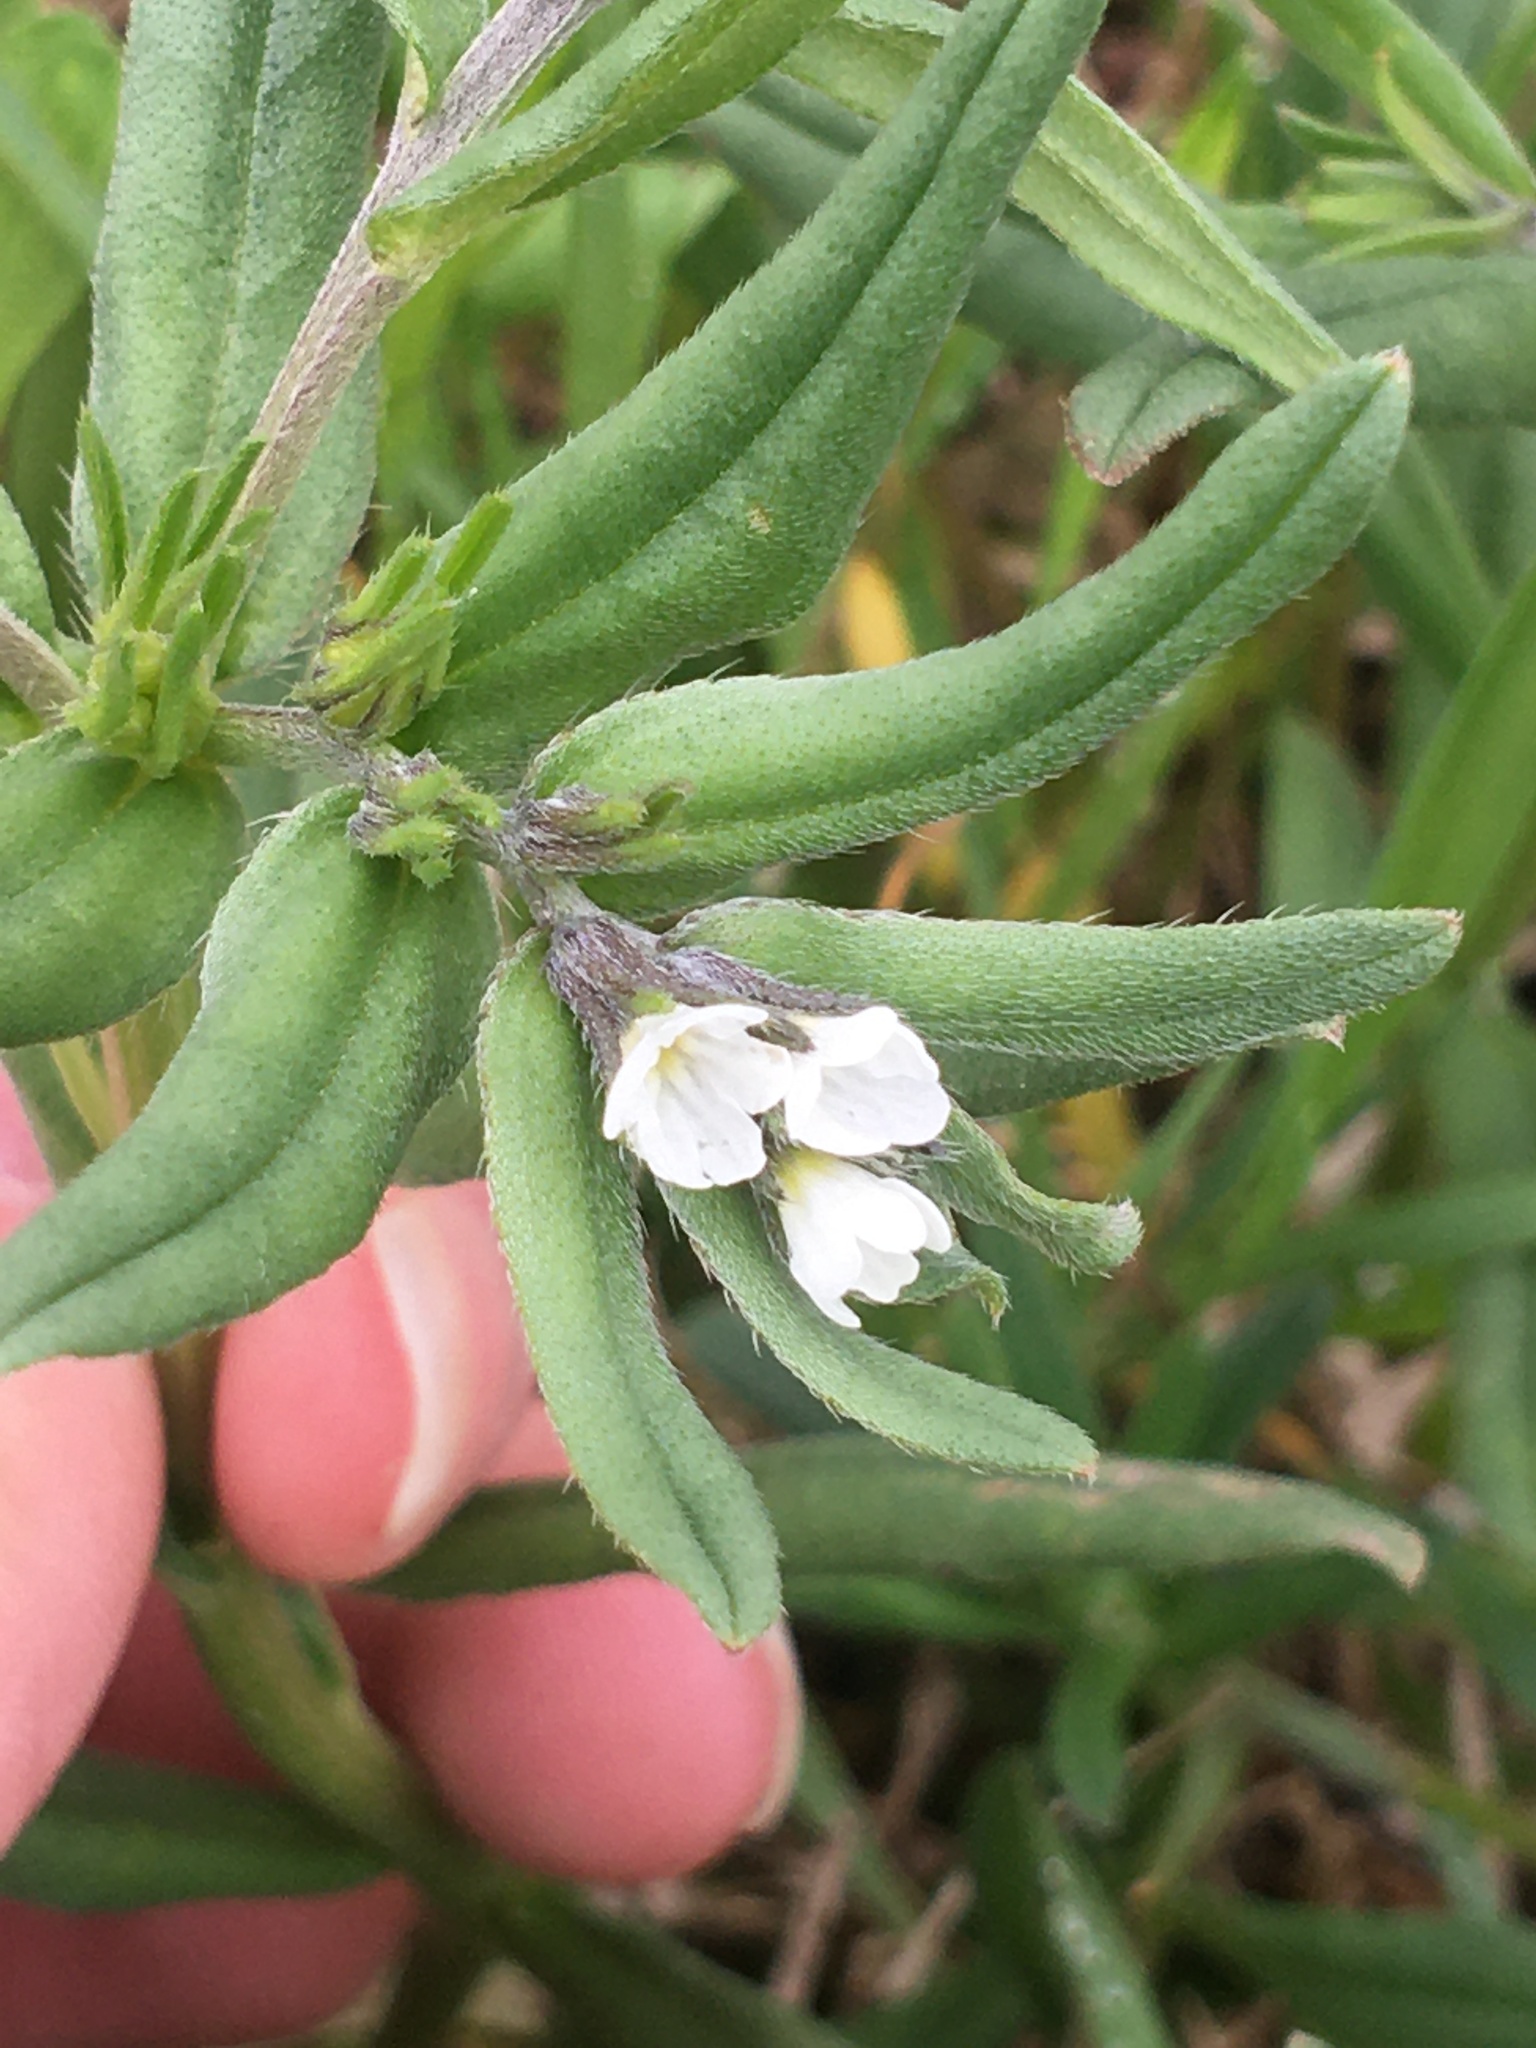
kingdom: Plantae
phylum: Tracheophyta
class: Magnoliopsida
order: Boraginales
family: Boraginaceae
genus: Buglossoides
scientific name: Buglossoides arvensis
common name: Corn gromwell
